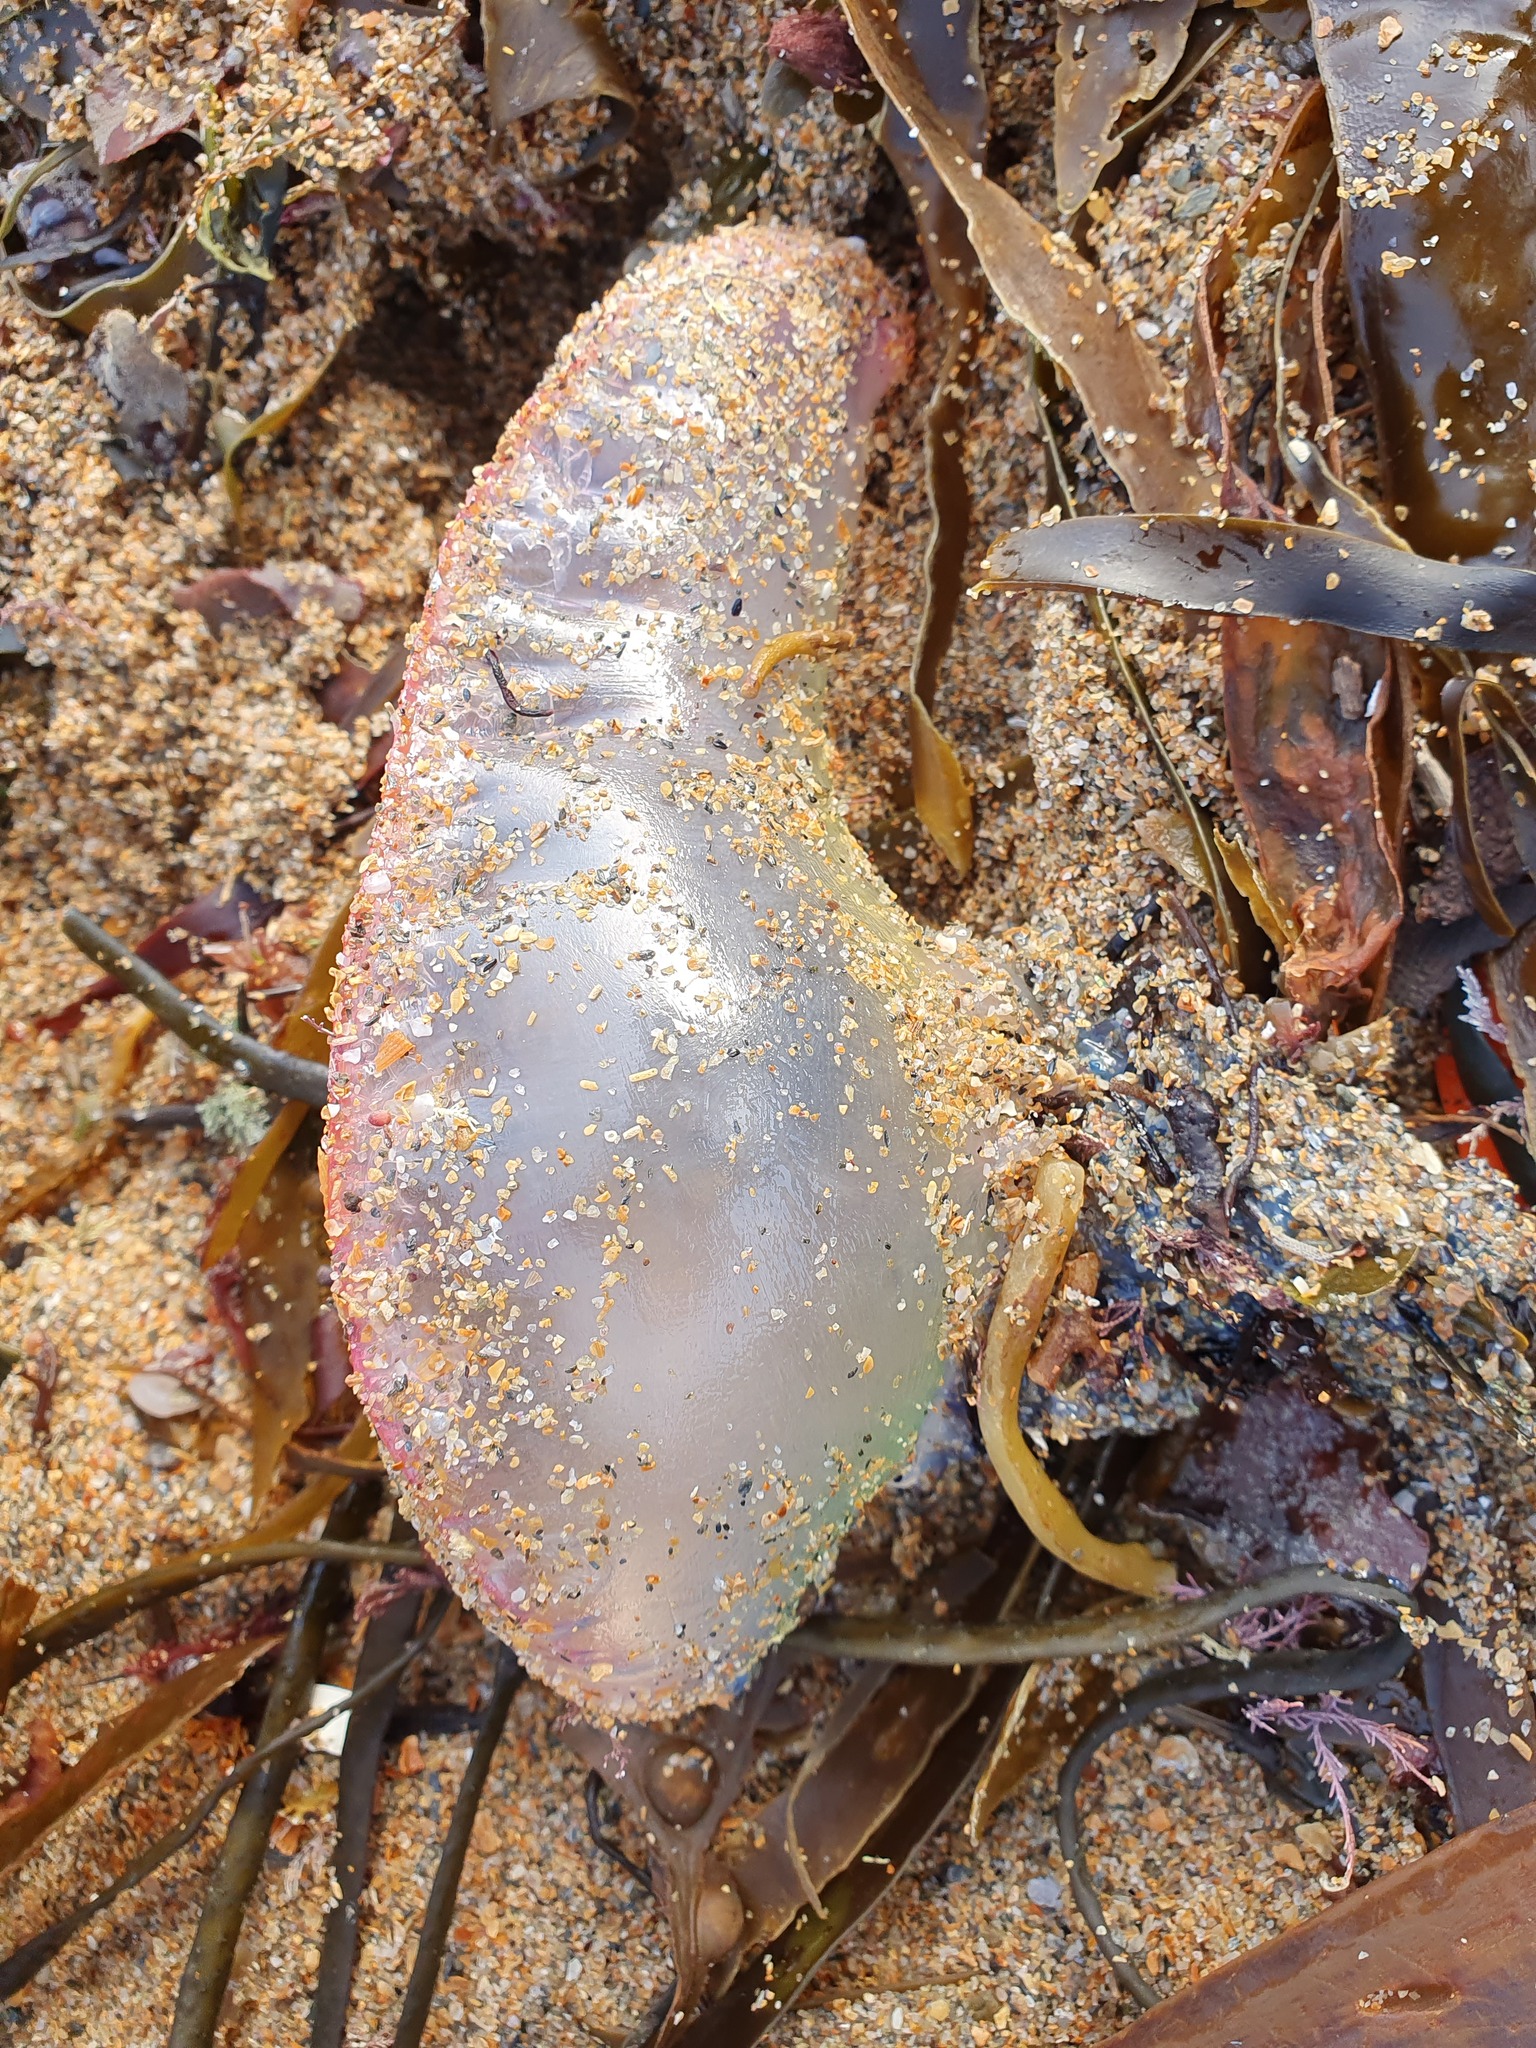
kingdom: Animalia
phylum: Cnidaria
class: Hydrozoa
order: Siphonophorae
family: Physaliidae
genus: Physalia
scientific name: Physalia physalis
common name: Portuguese man-of-war
